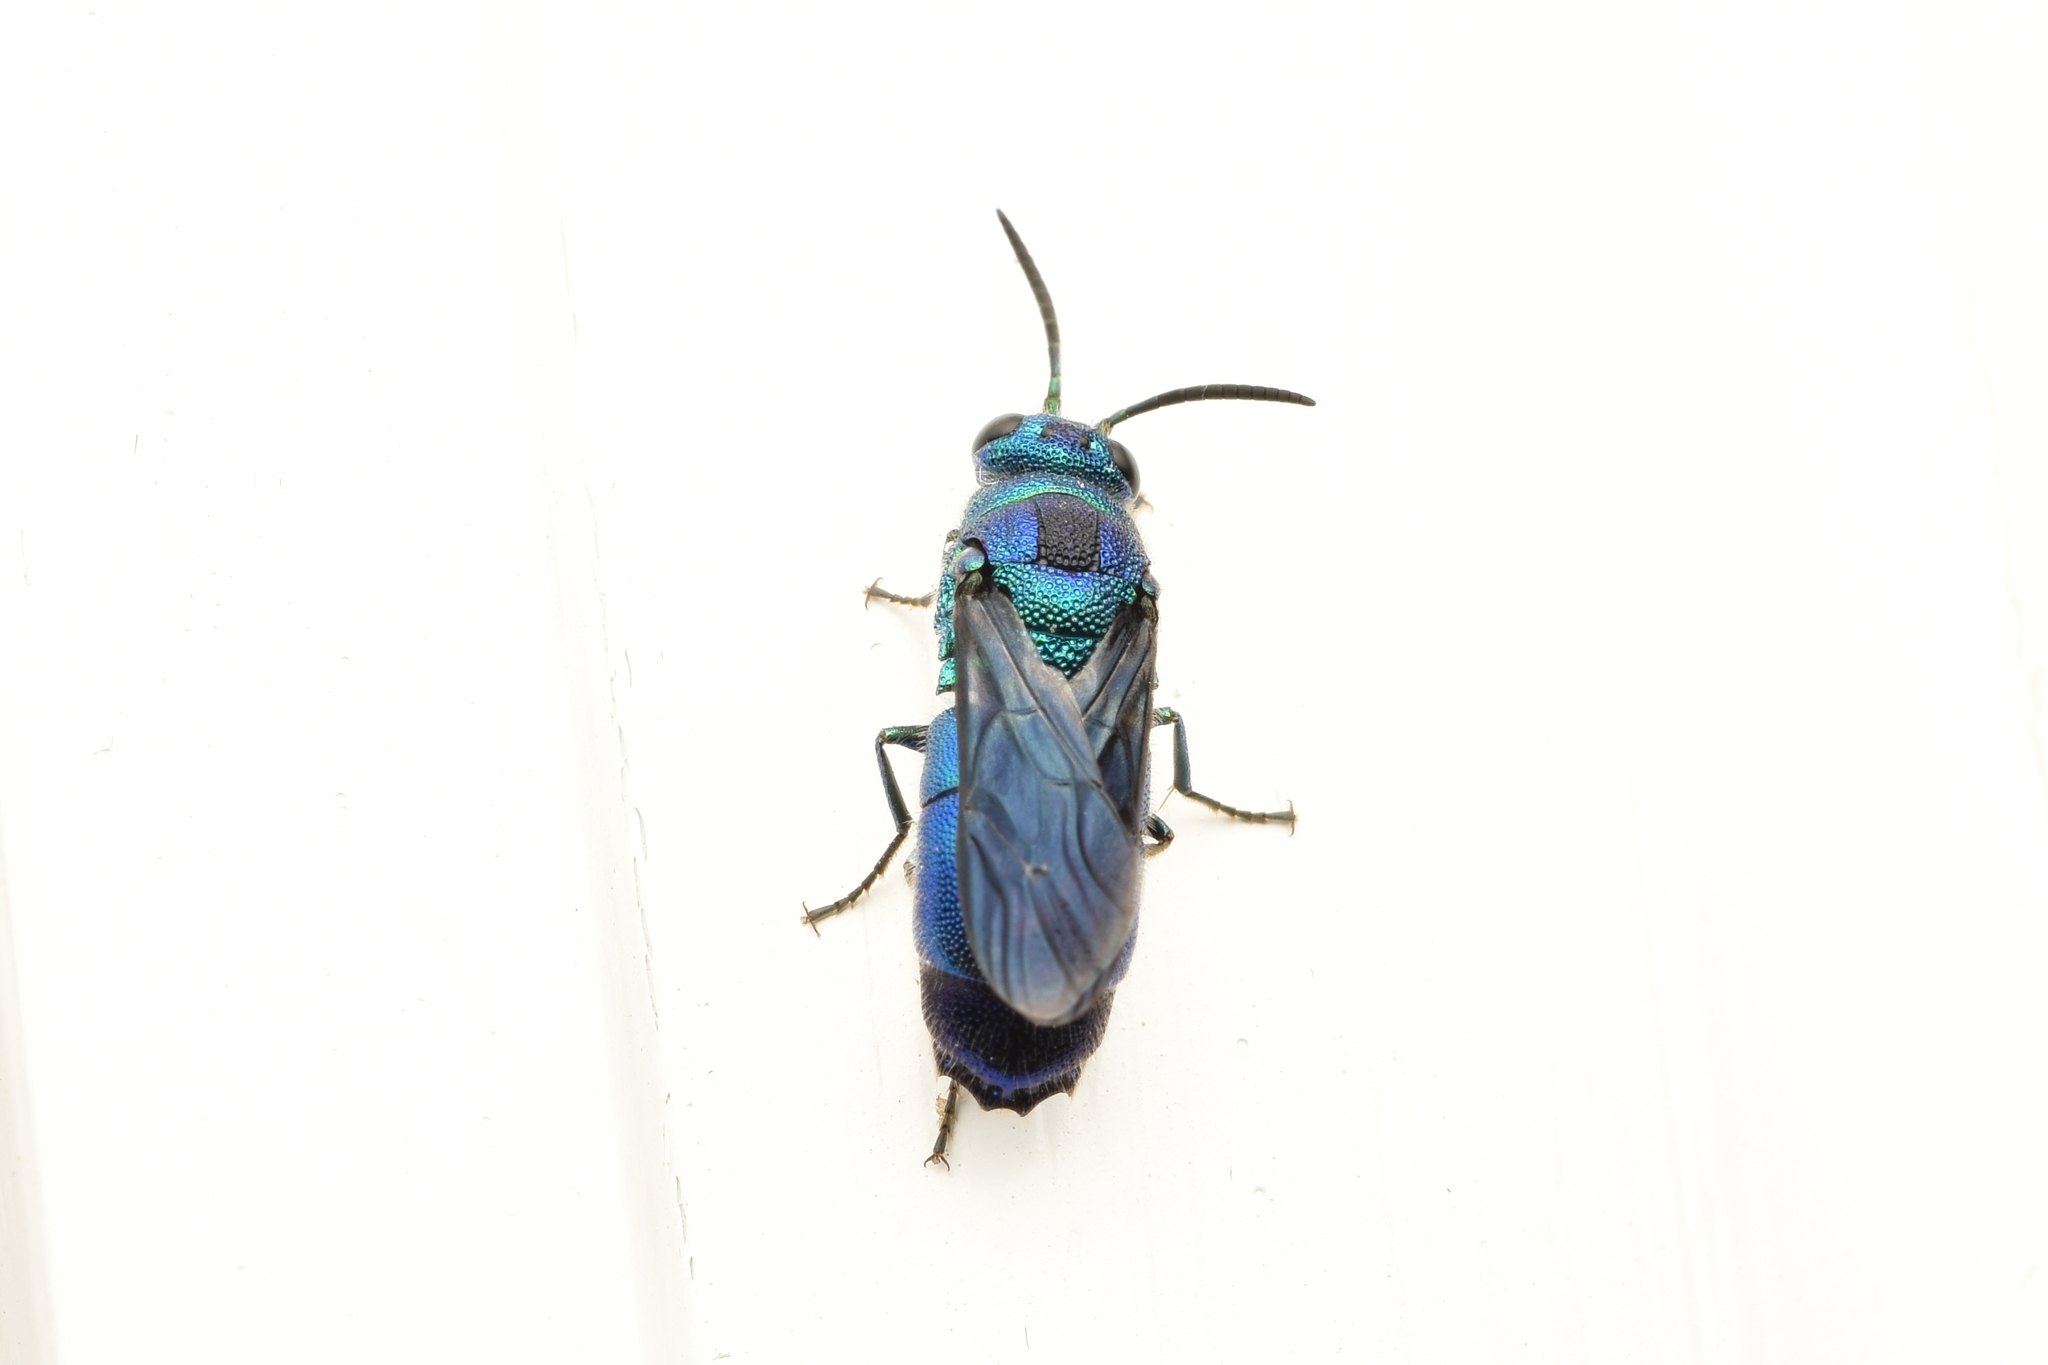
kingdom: Animalia
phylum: Arthropoda
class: Insecta
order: Hymenoptera
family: Chrysididae
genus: Chrysis
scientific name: Chrysis angolensis
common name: Cuckoo wasp
